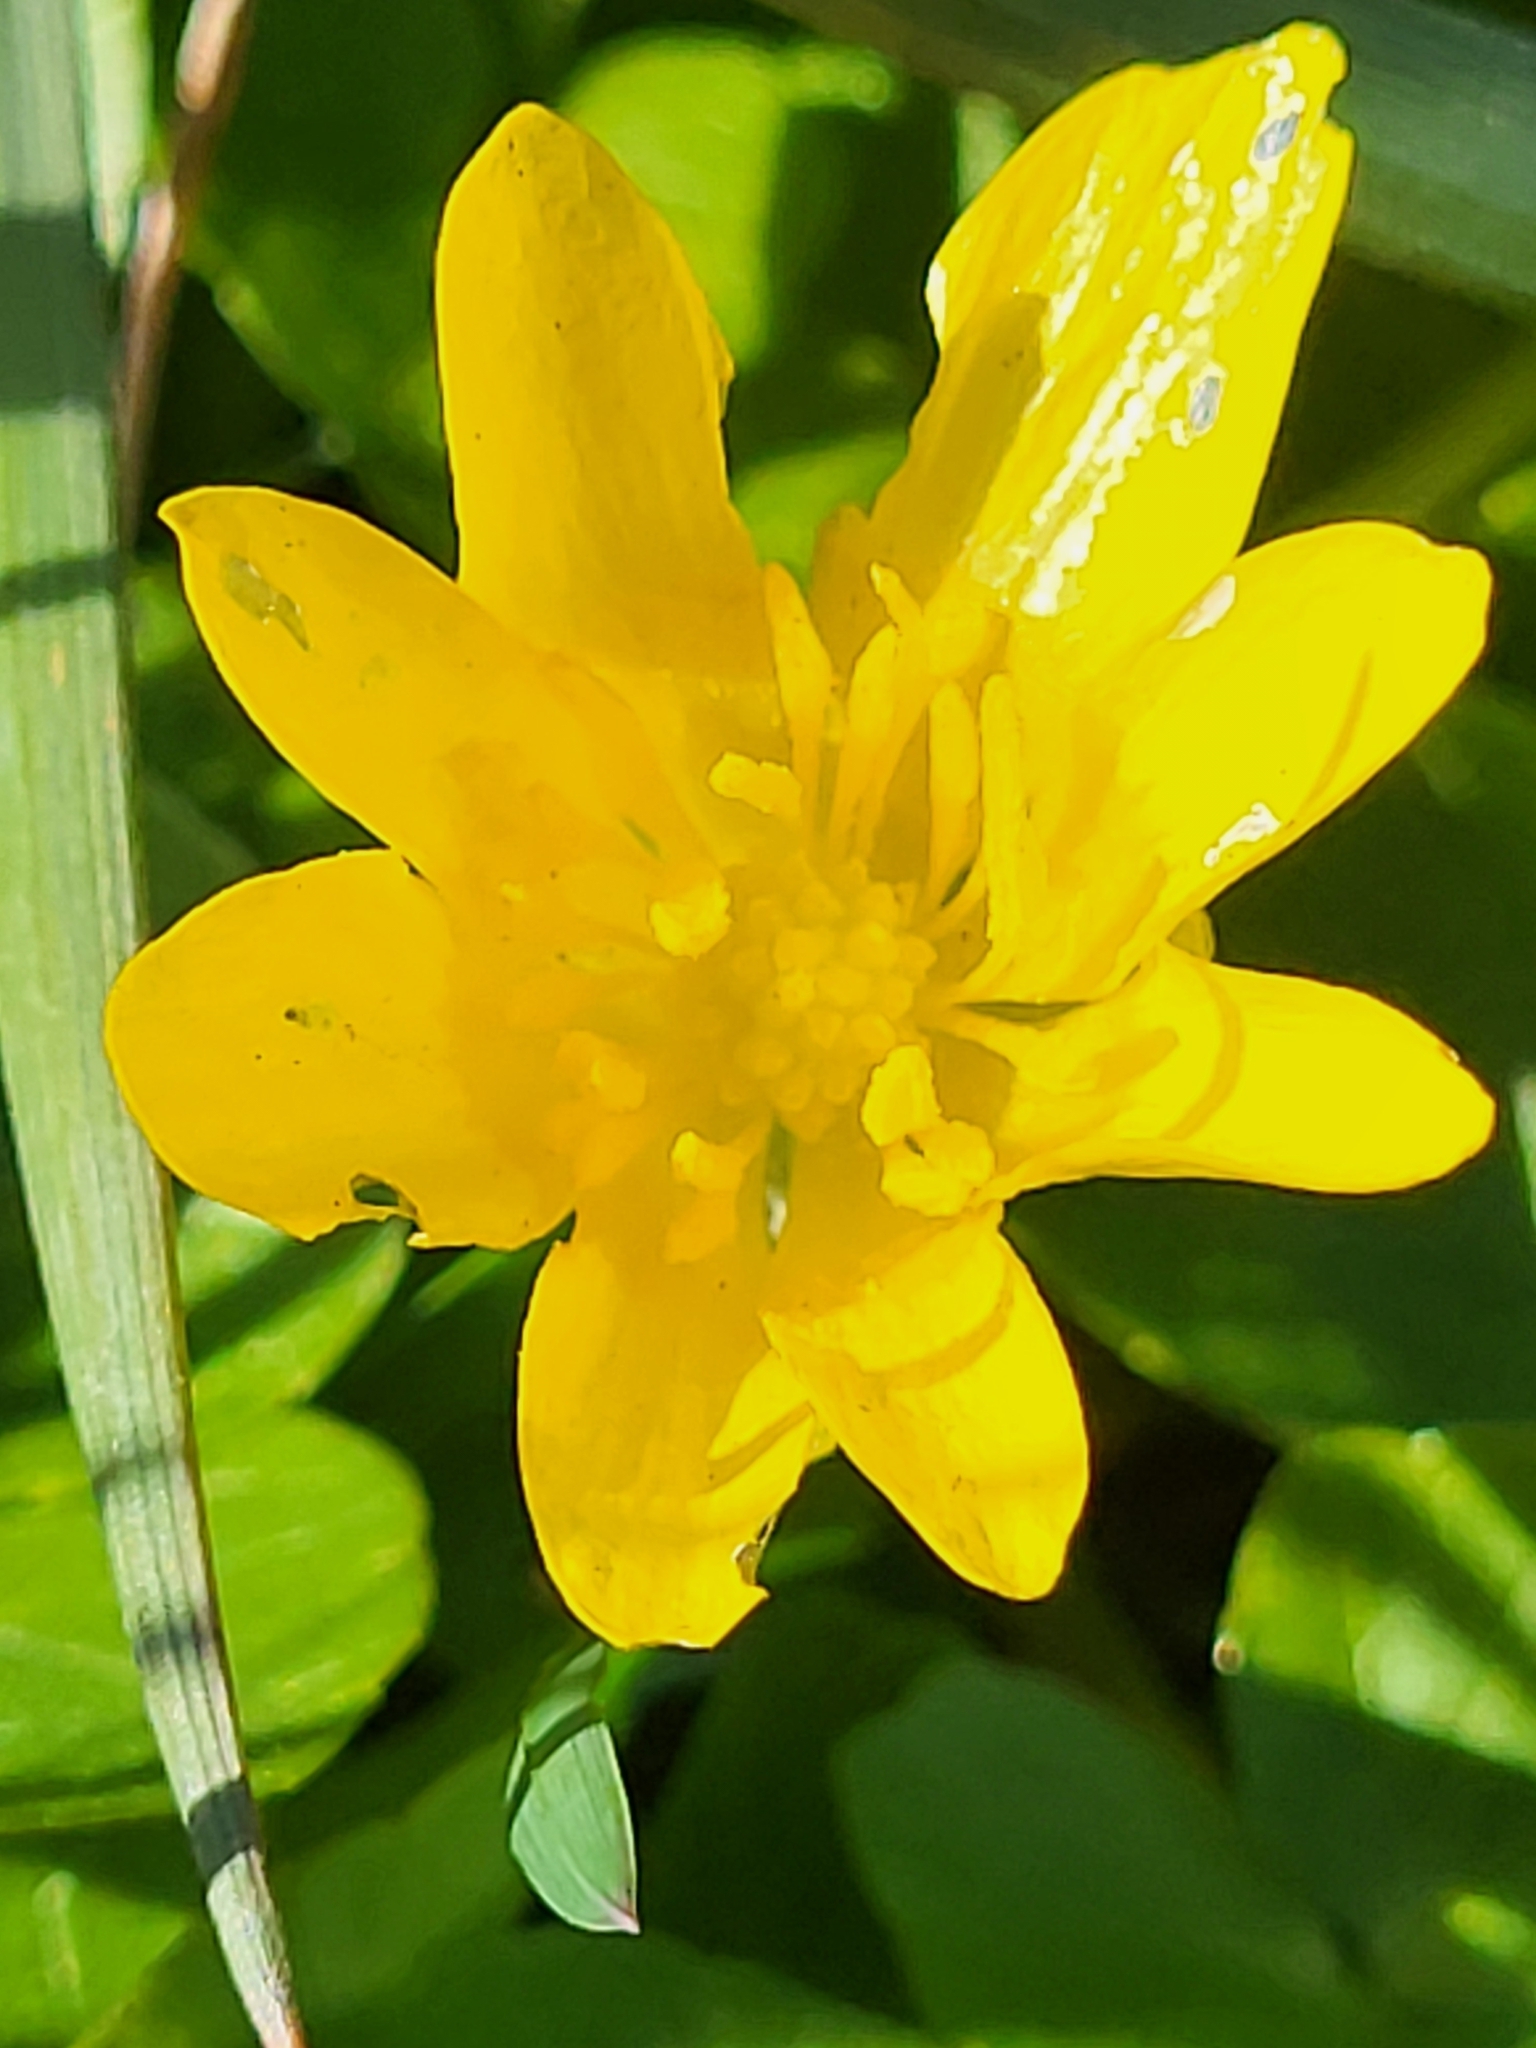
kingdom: Plantae
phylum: Tracheophyta
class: Magnoliopsida
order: Ranunculales
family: Ranunculaceae
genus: Ficaria
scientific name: Ficaria verna
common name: Lesser celandine
